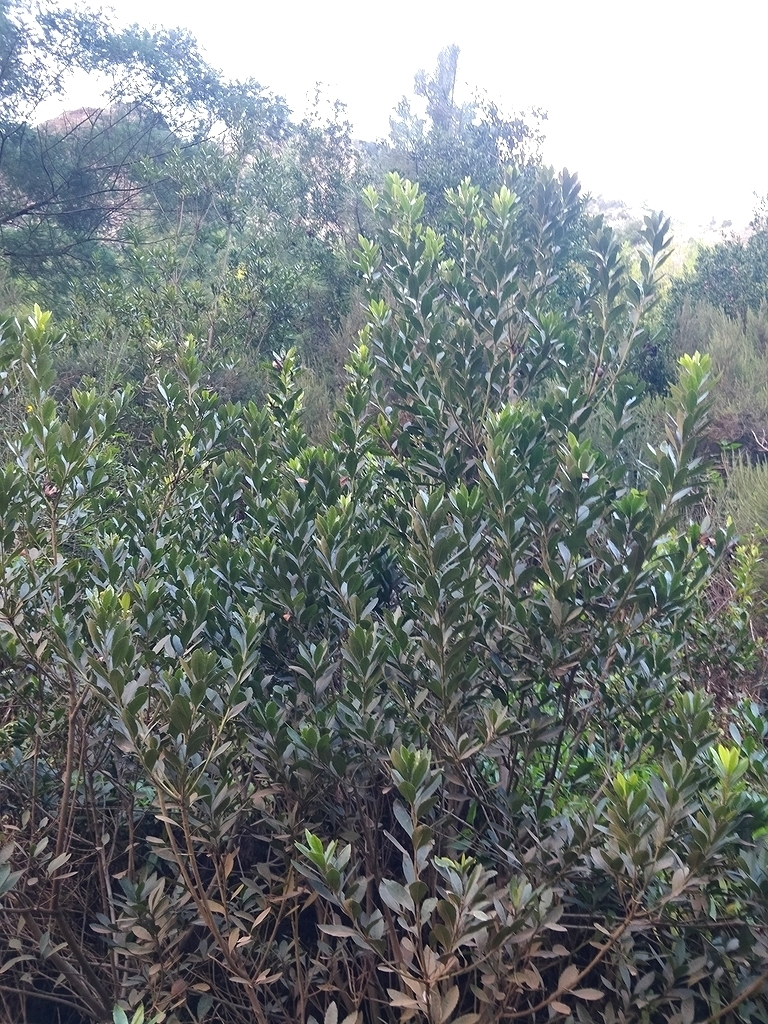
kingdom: Plantae
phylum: Tracheophyta
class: Magnoliopsida
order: Fagales
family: Myricaceae
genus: Morella
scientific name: Morella faya
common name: Firetree
